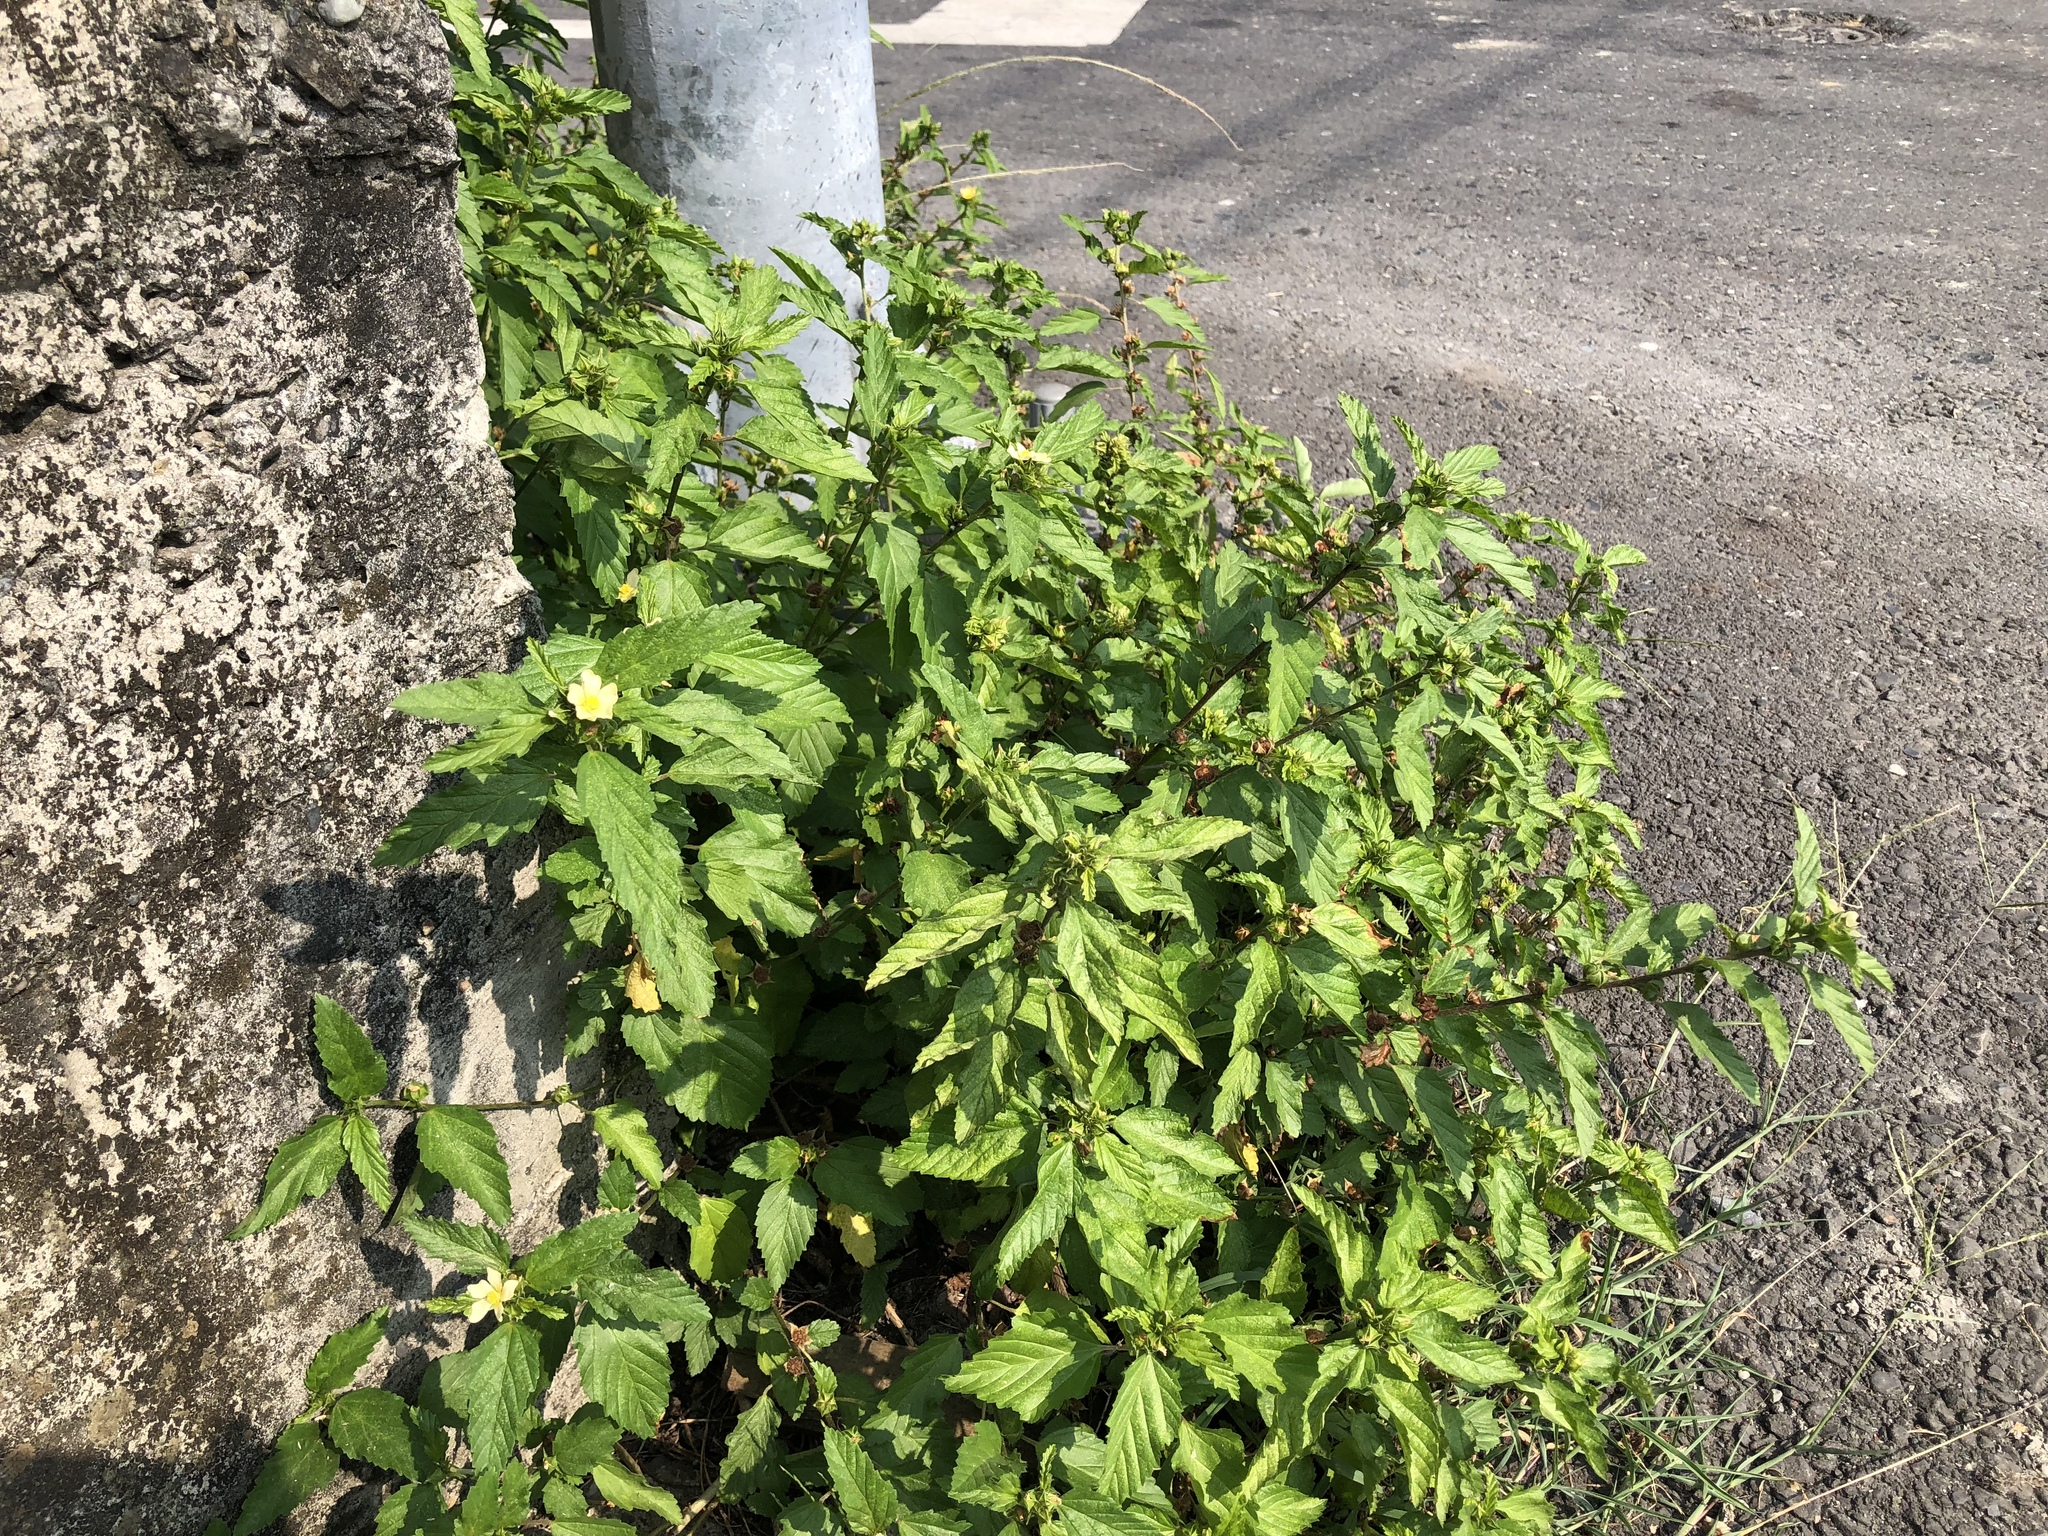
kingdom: Plantae
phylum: Tracheophyta
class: Magnoliopsida
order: Malvales
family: Malvaceae
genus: Malvastrum
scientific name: Malvastrum coromandelianum
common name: Threelobe false mallow
